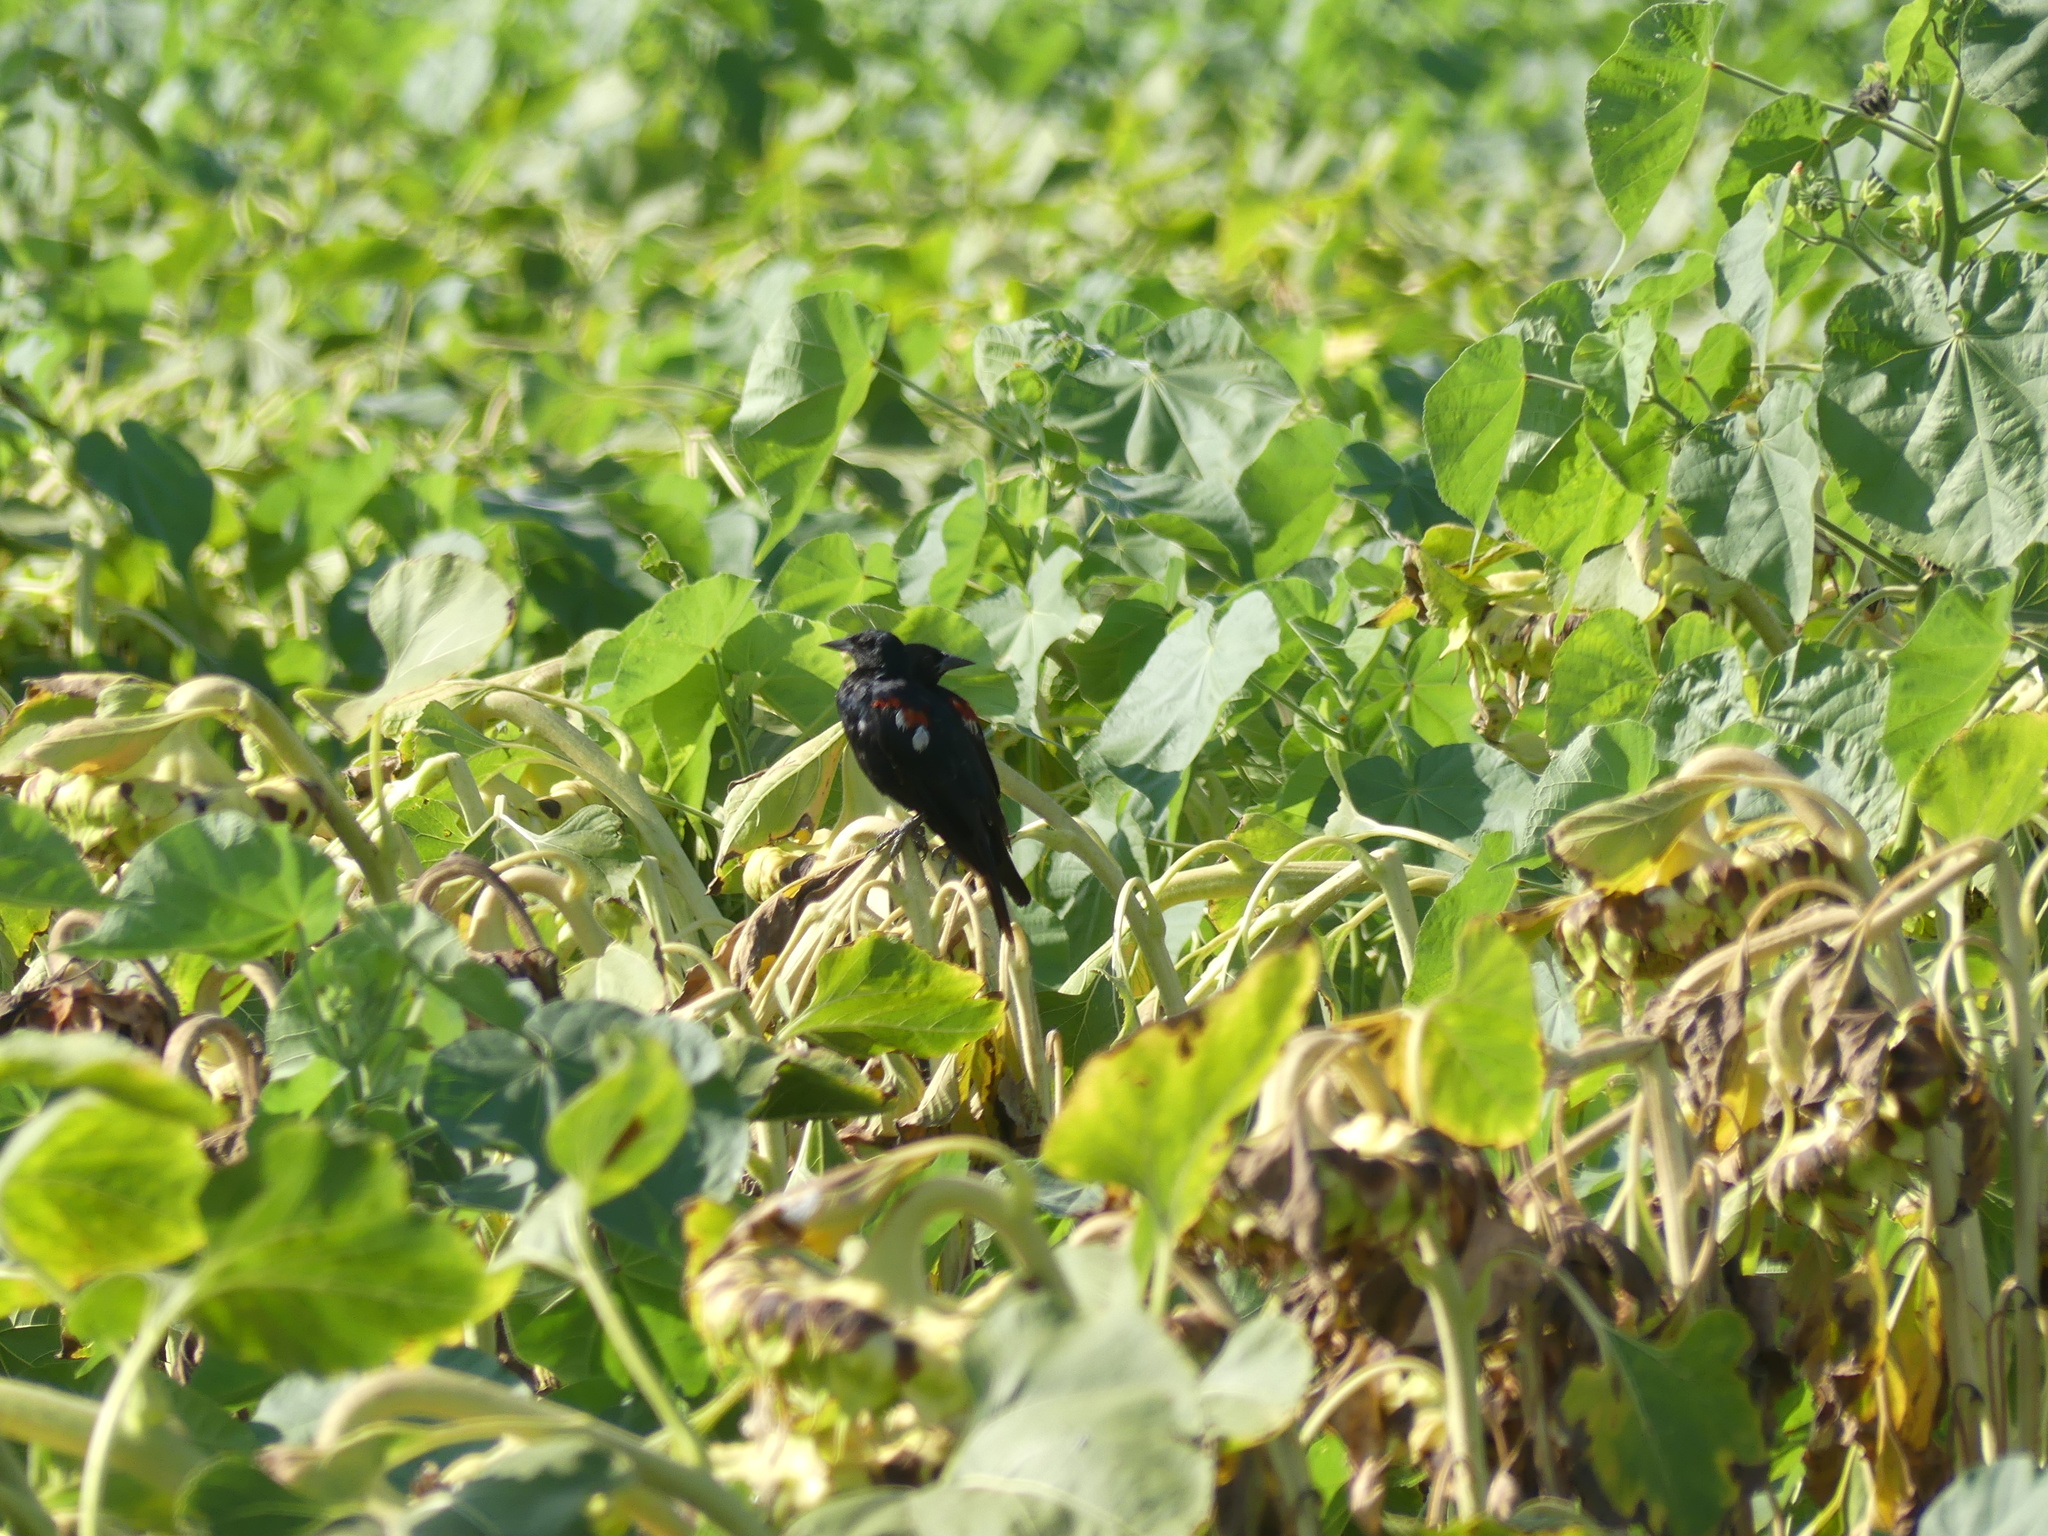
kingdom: Animalia
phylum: Chordata
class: Aves
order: Passeriformes
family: Icteridae
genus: Agelaius
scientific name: Agelaius tricolor
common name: Tricolored blackbird
